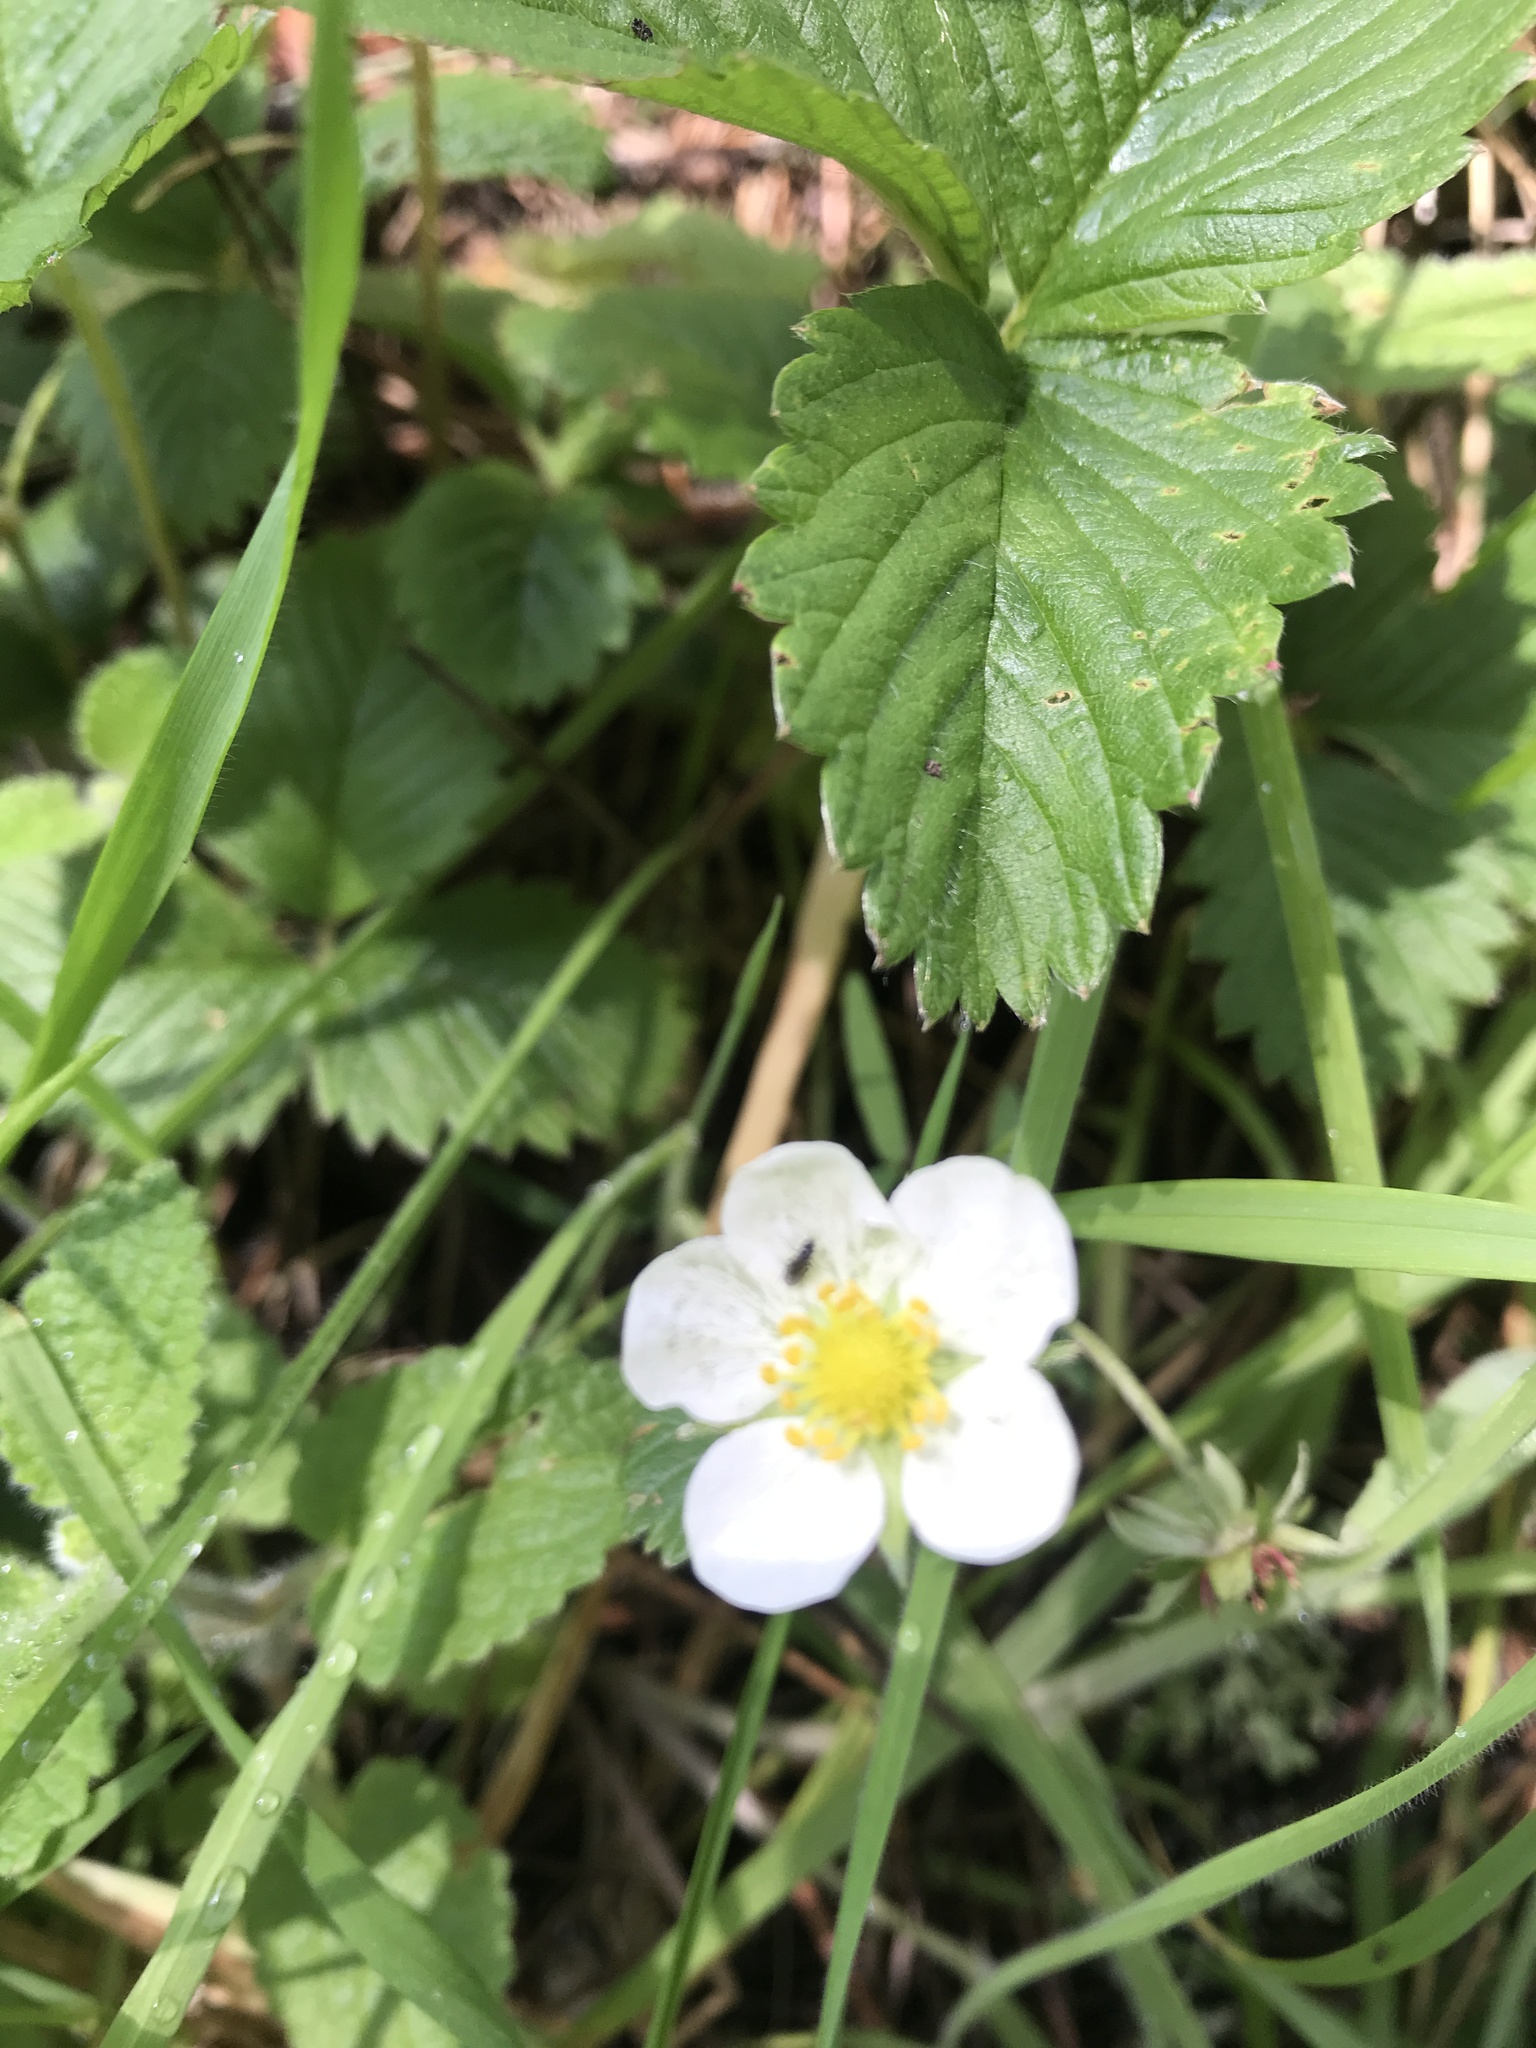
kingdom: Plantae
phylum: Tracheophyta
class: Magnoliopsida
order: Rosales
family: Rosaceae
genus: Fragaria
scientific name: Fragaria vesca
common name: Wild strawberry
